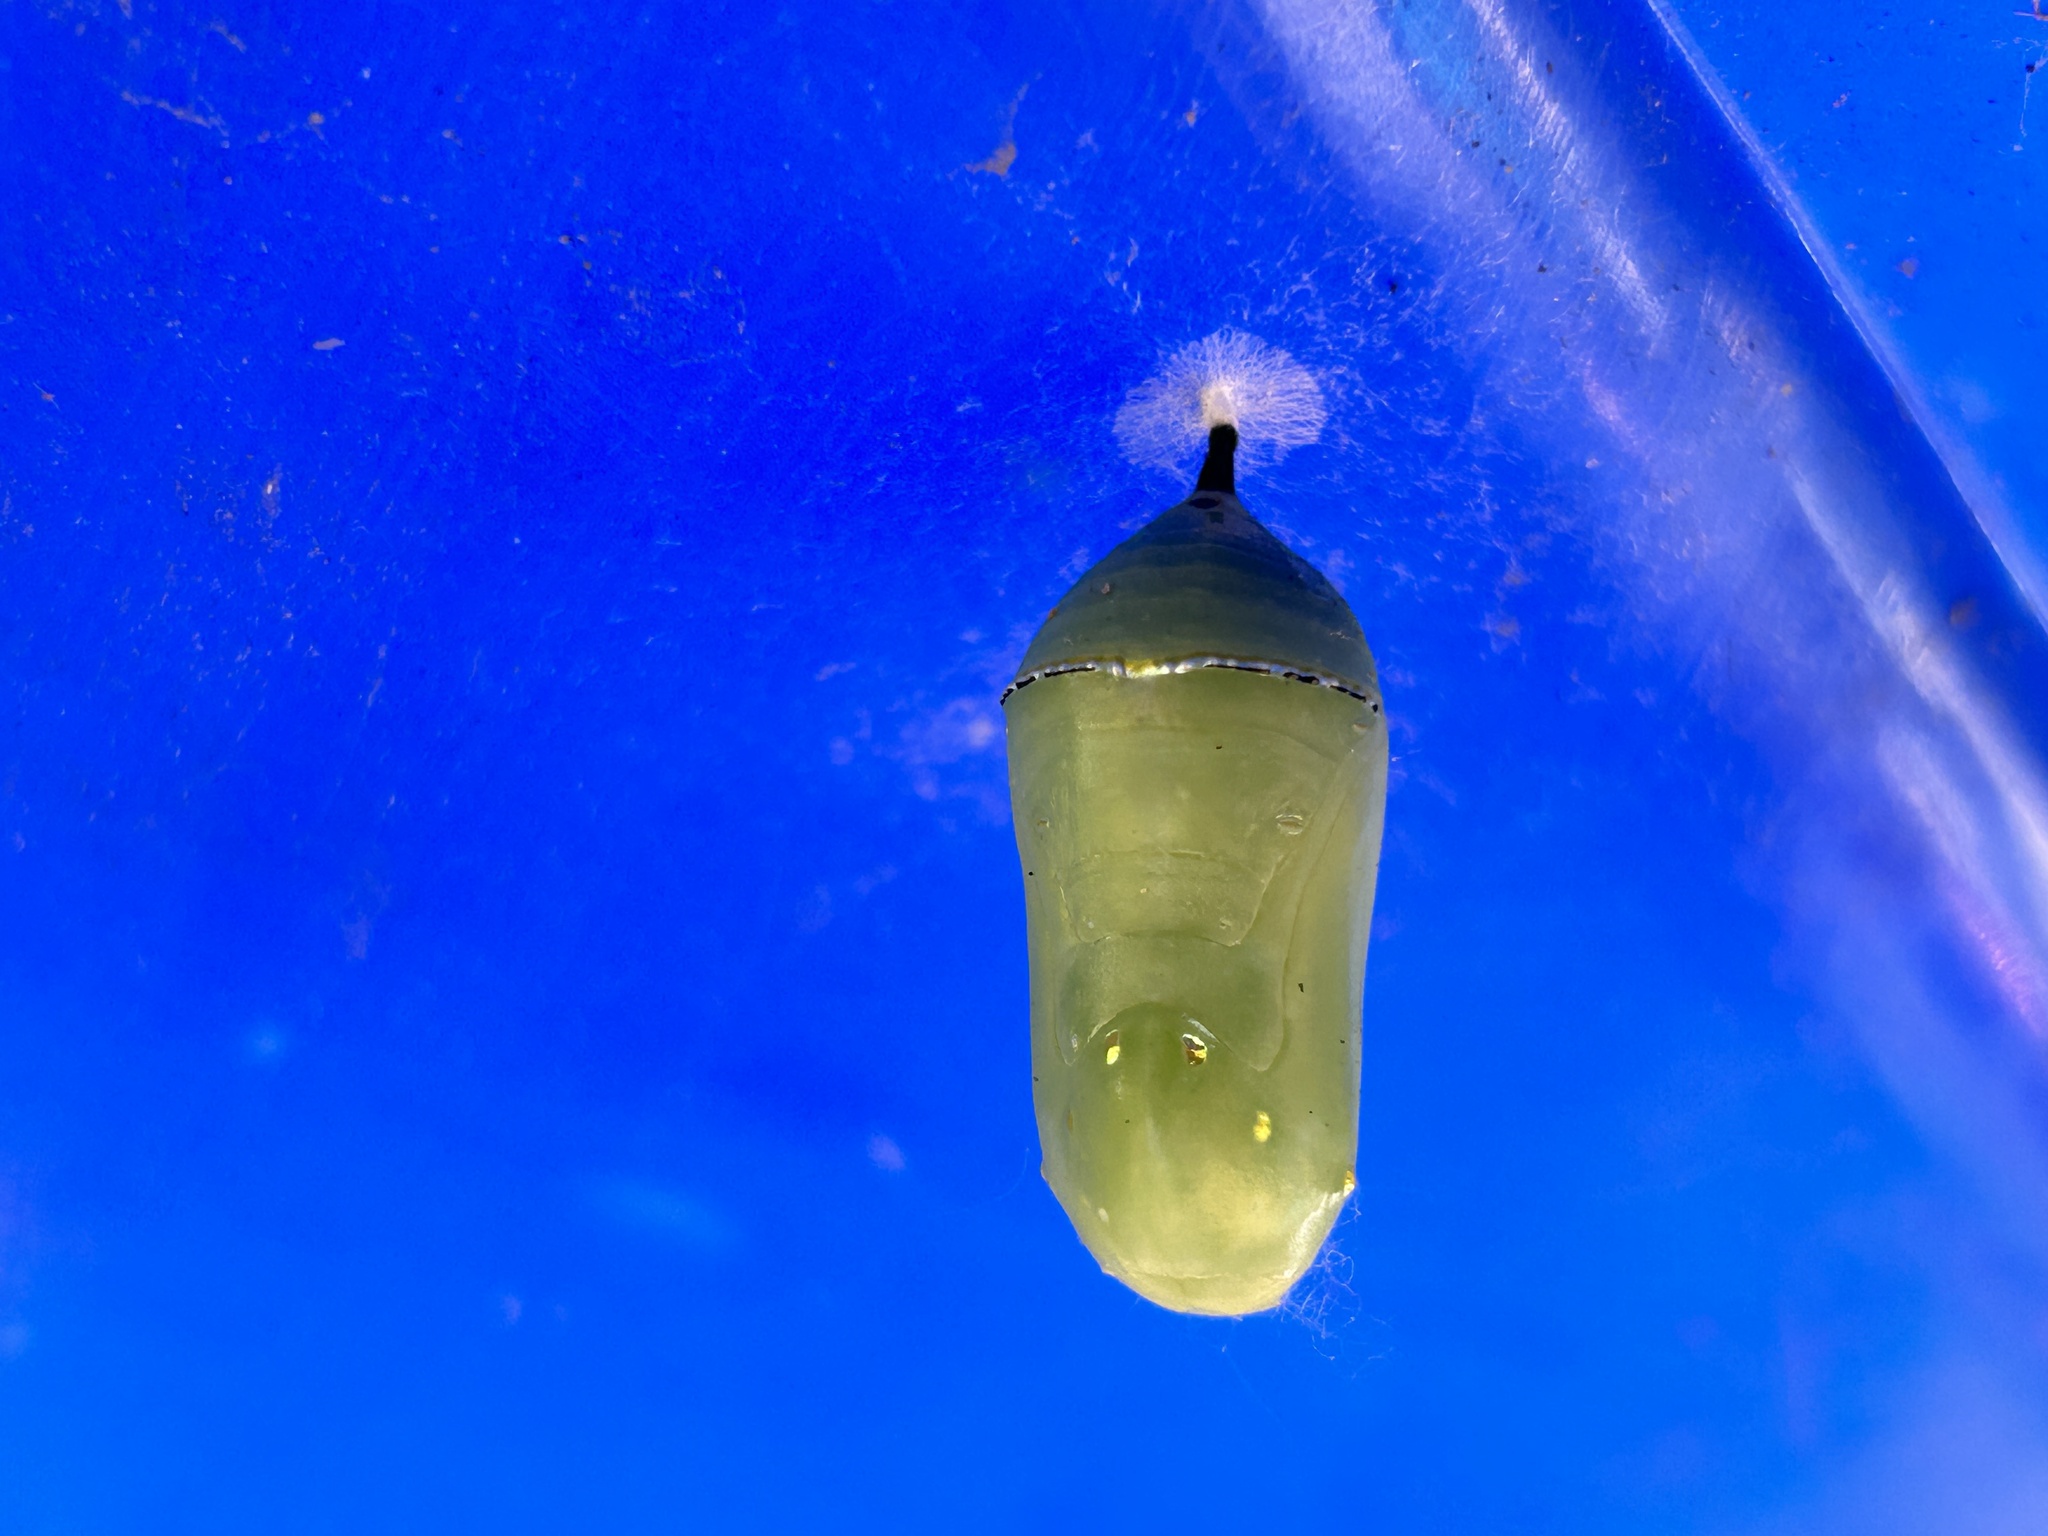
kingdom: Animalia
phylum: Arthropoda
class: Insecta
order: Lepidoptera
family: Nymphalidae
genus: Danaus
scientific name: Danaus plexippus
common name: Monarch
